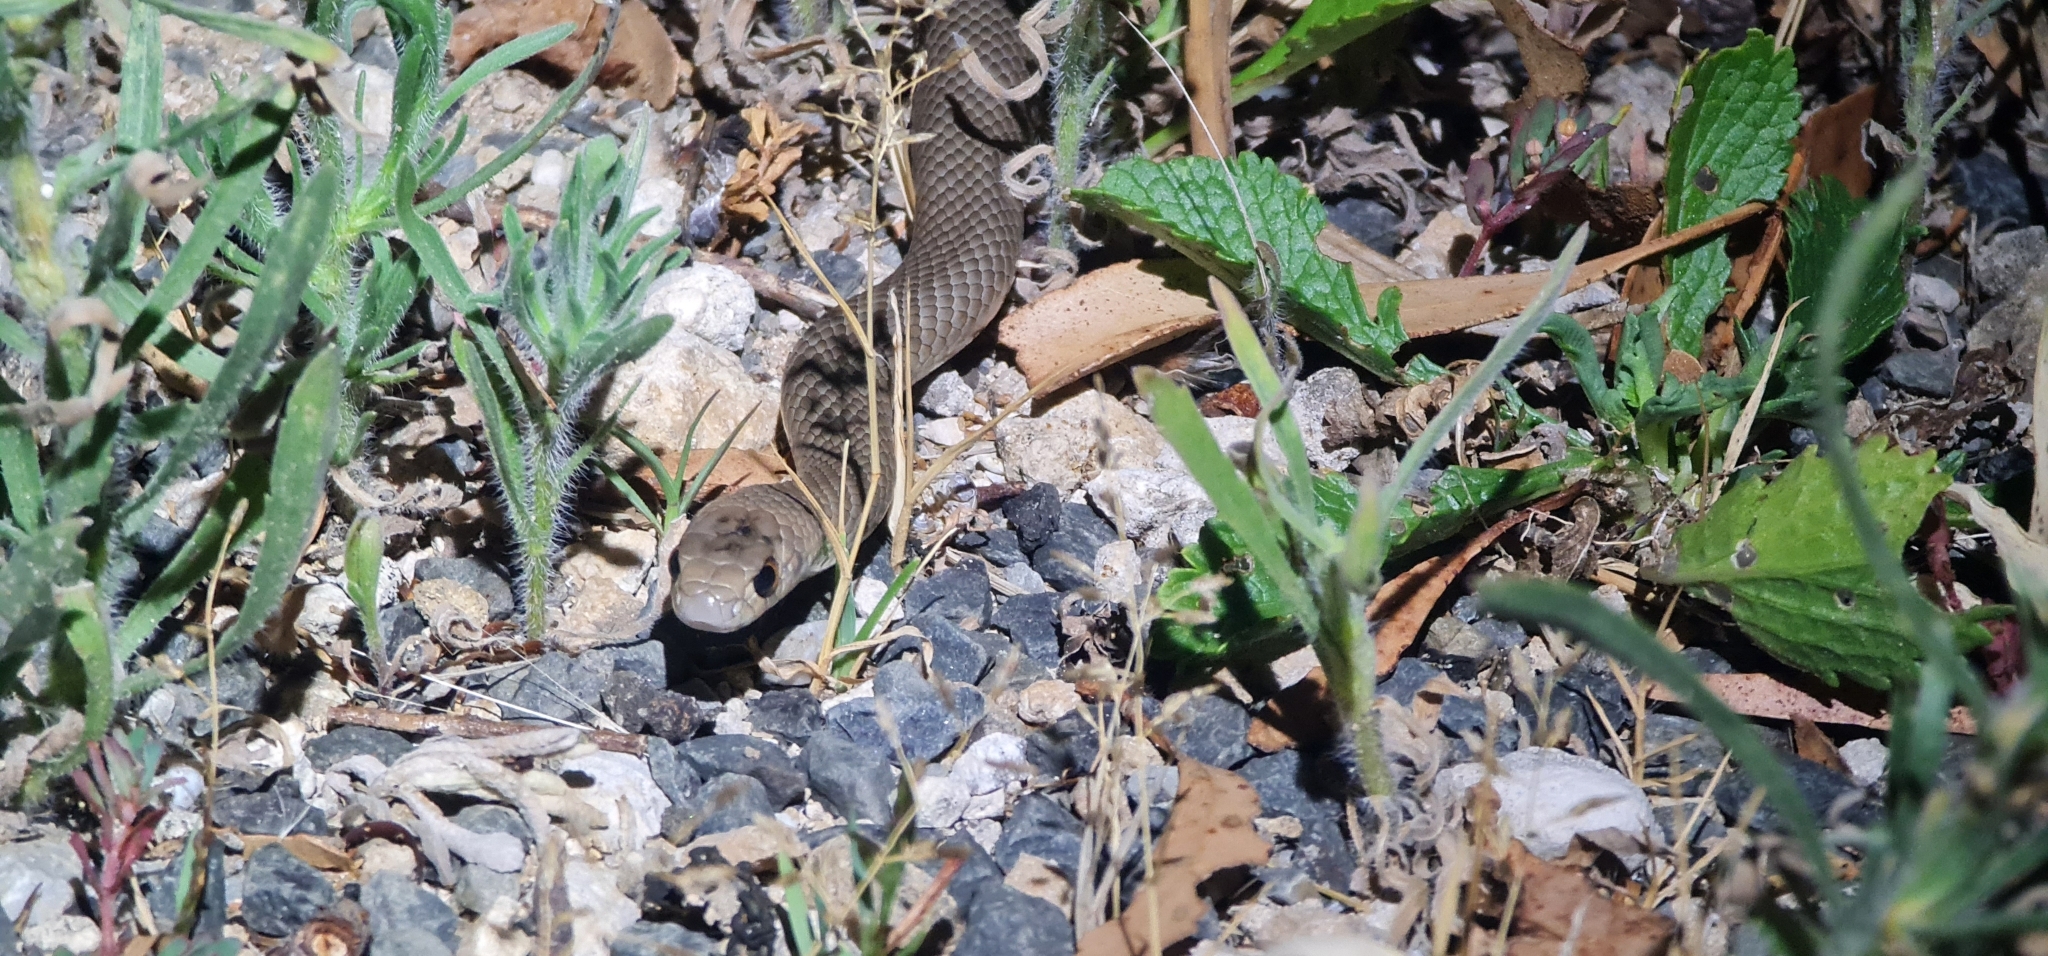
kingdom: Animalia
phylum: Chordata
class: Squamata
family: Elapidae
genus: Pseudonaja
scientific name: Pseudonaja textilis
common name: Eastern brown snake
